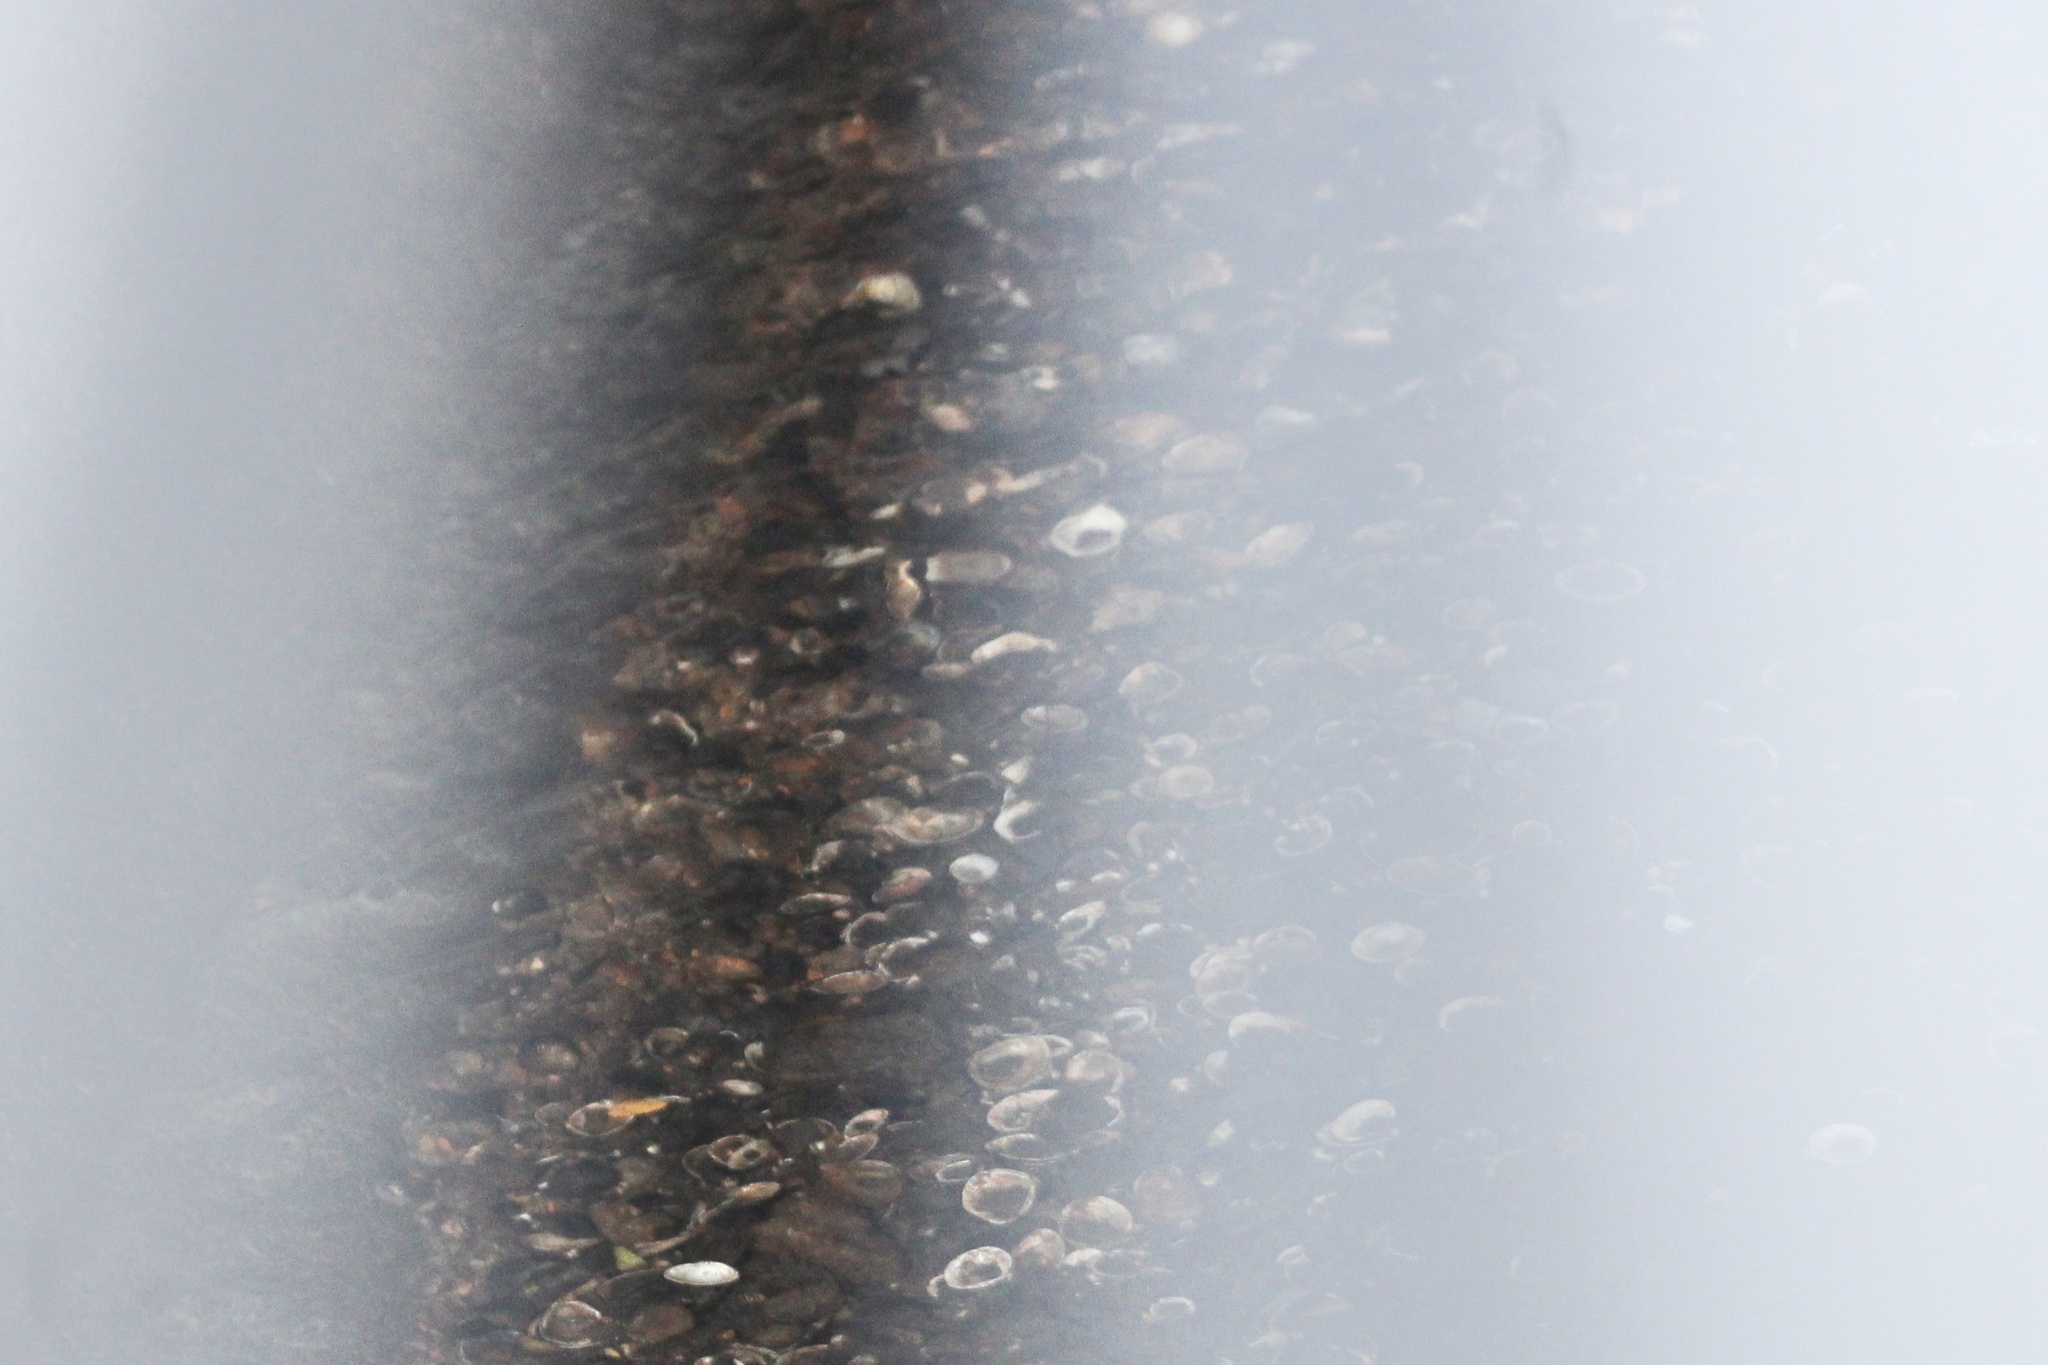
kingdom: Animalia
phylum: Mollusca
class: Bivalvia
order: Venerida
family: Cyrenidae
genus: Corbicula
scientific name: Corbicula fluminea
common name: Asian clam
